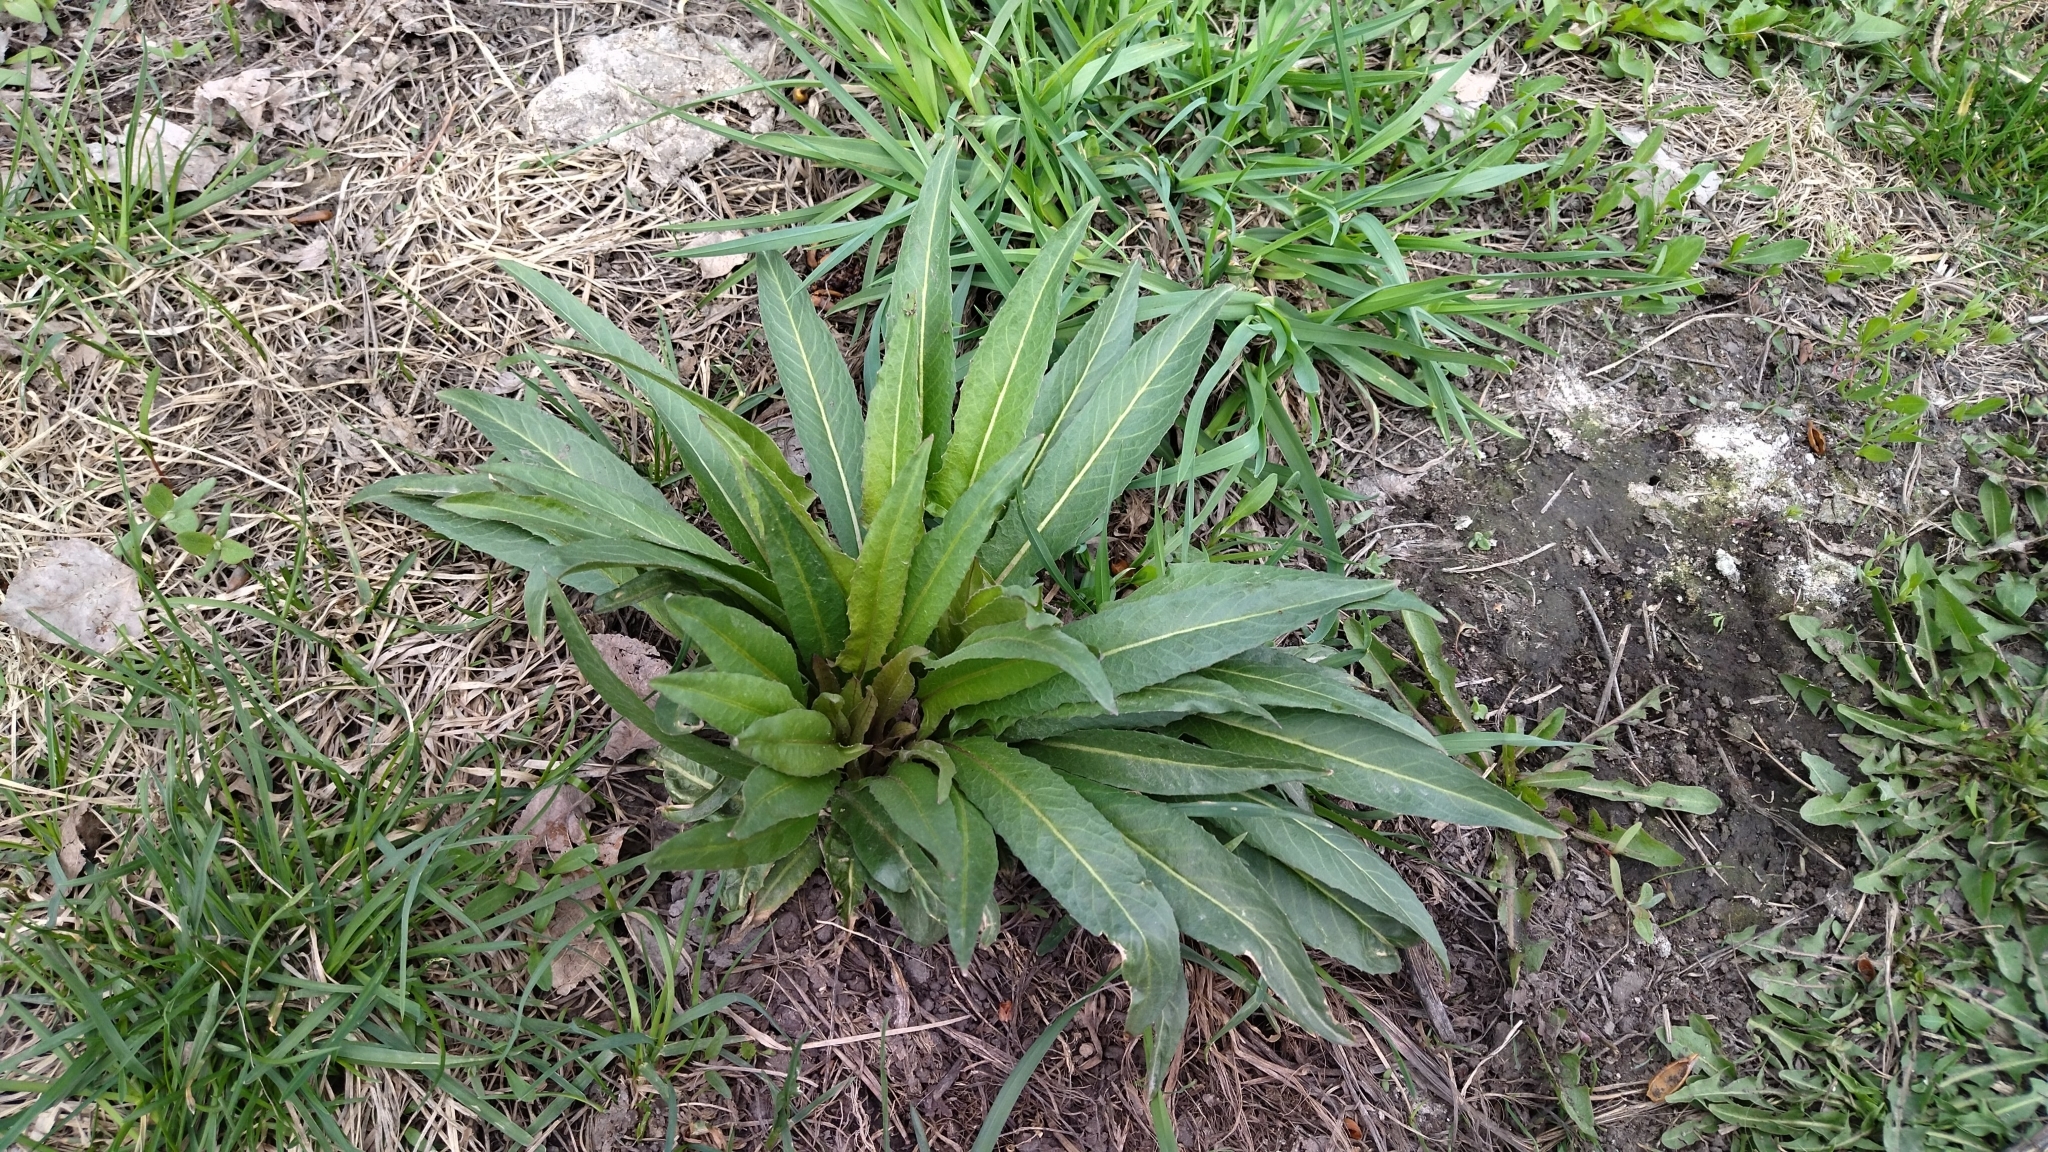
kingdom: Plantae
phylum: Tracheophyta
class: Magnoliopsida
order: Brassicales
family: Brassicaceae
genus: Bunias
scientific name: Bunias orientalis
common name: Warty-cabbage
